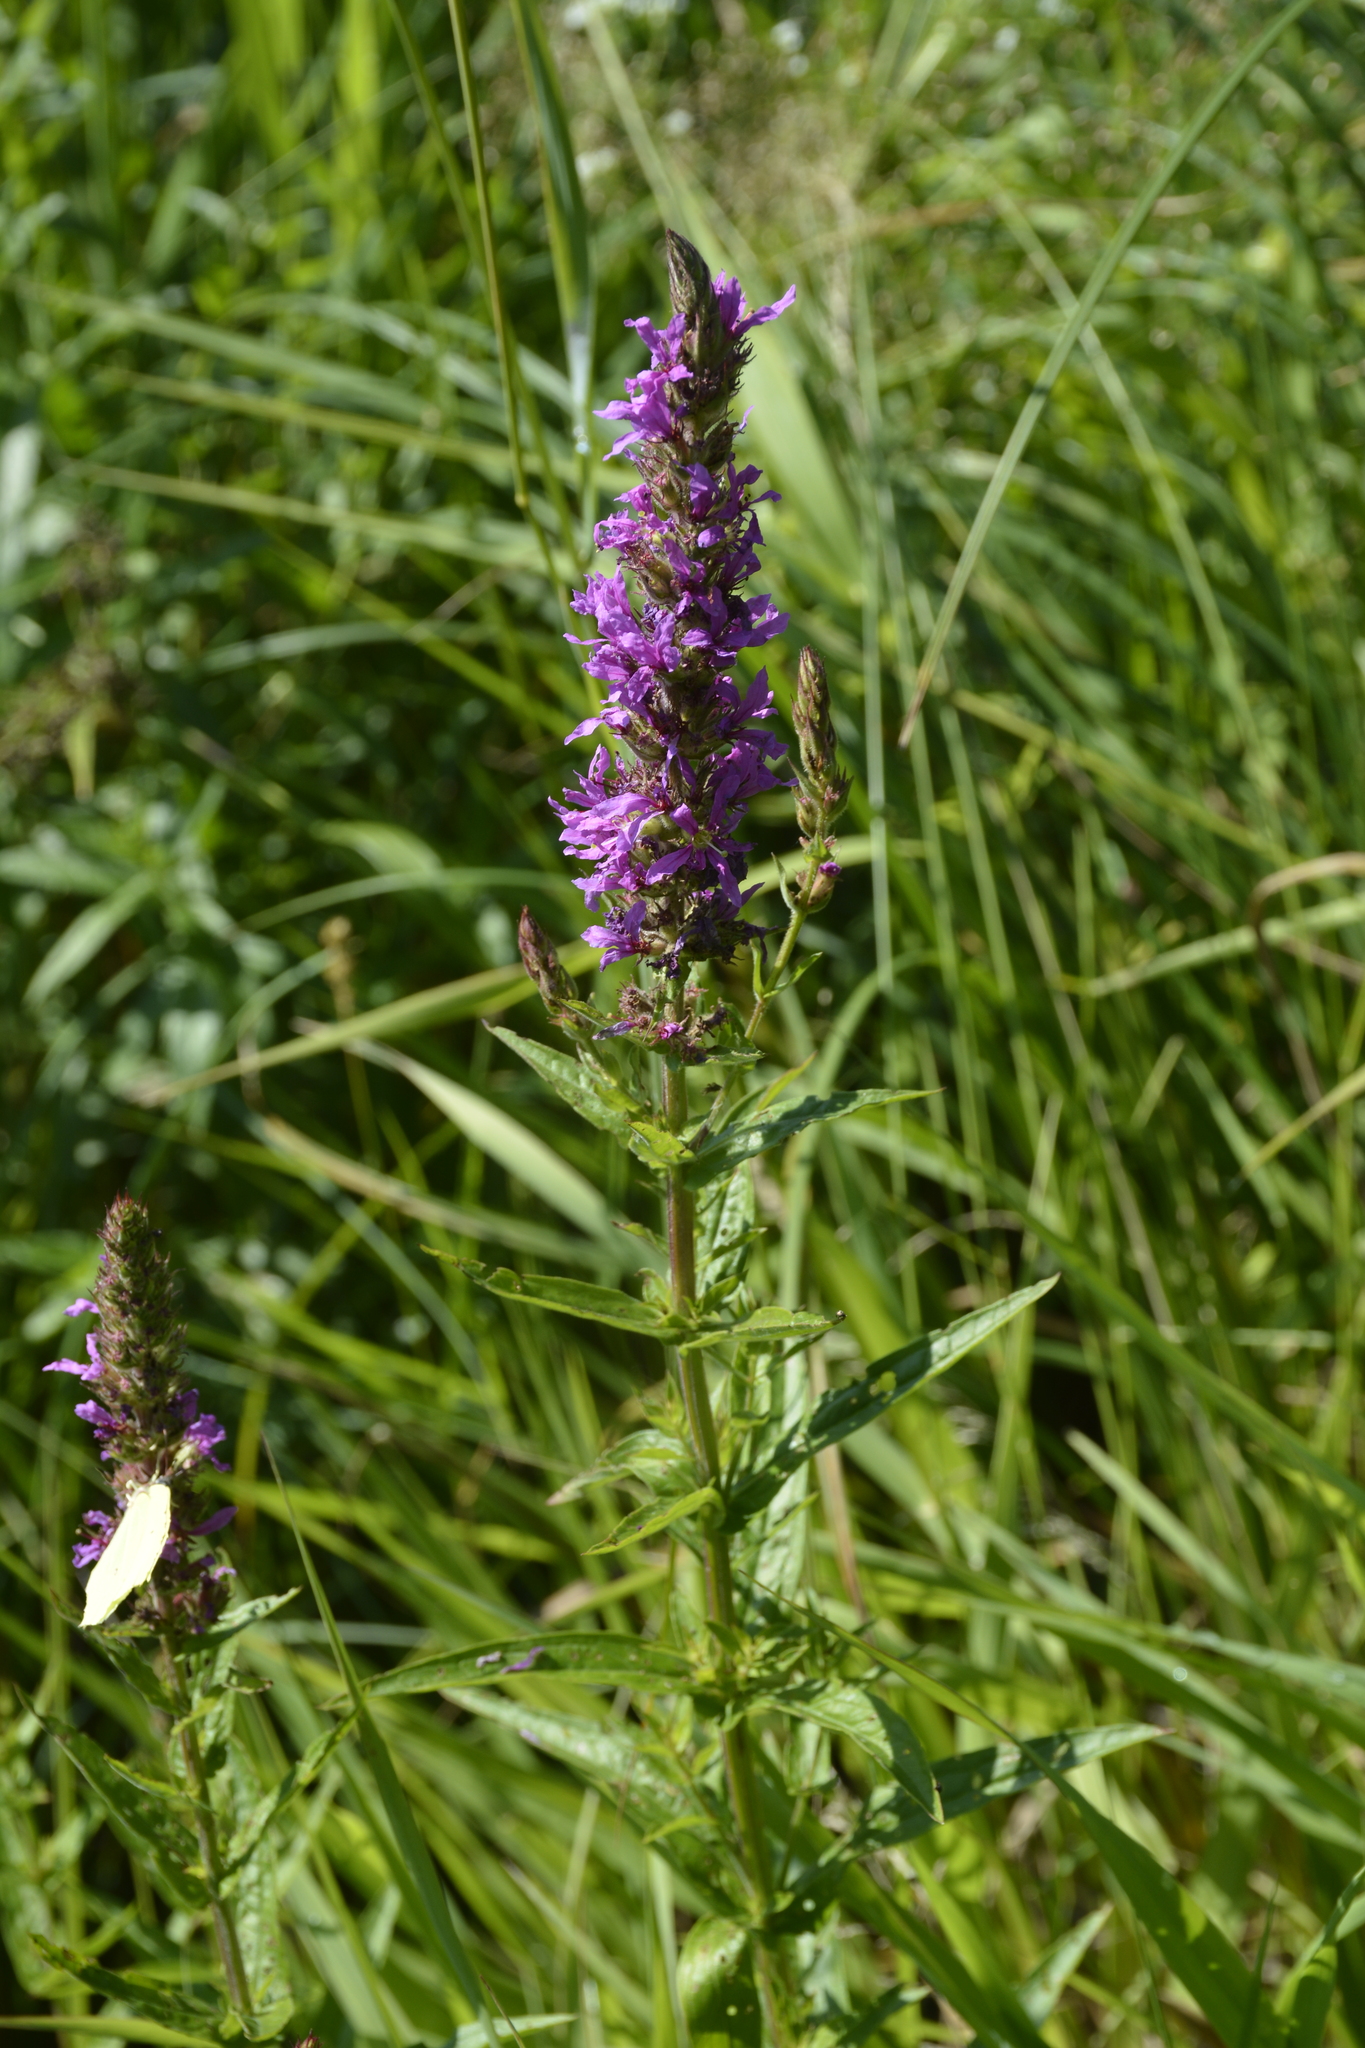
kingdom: Plantae
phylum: Tracheophyta
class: Magnoliopsida
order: Myrtales
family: Lythraceae
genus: Lythrum
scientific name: Lythrum salicaria
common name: Purple loosestrife
